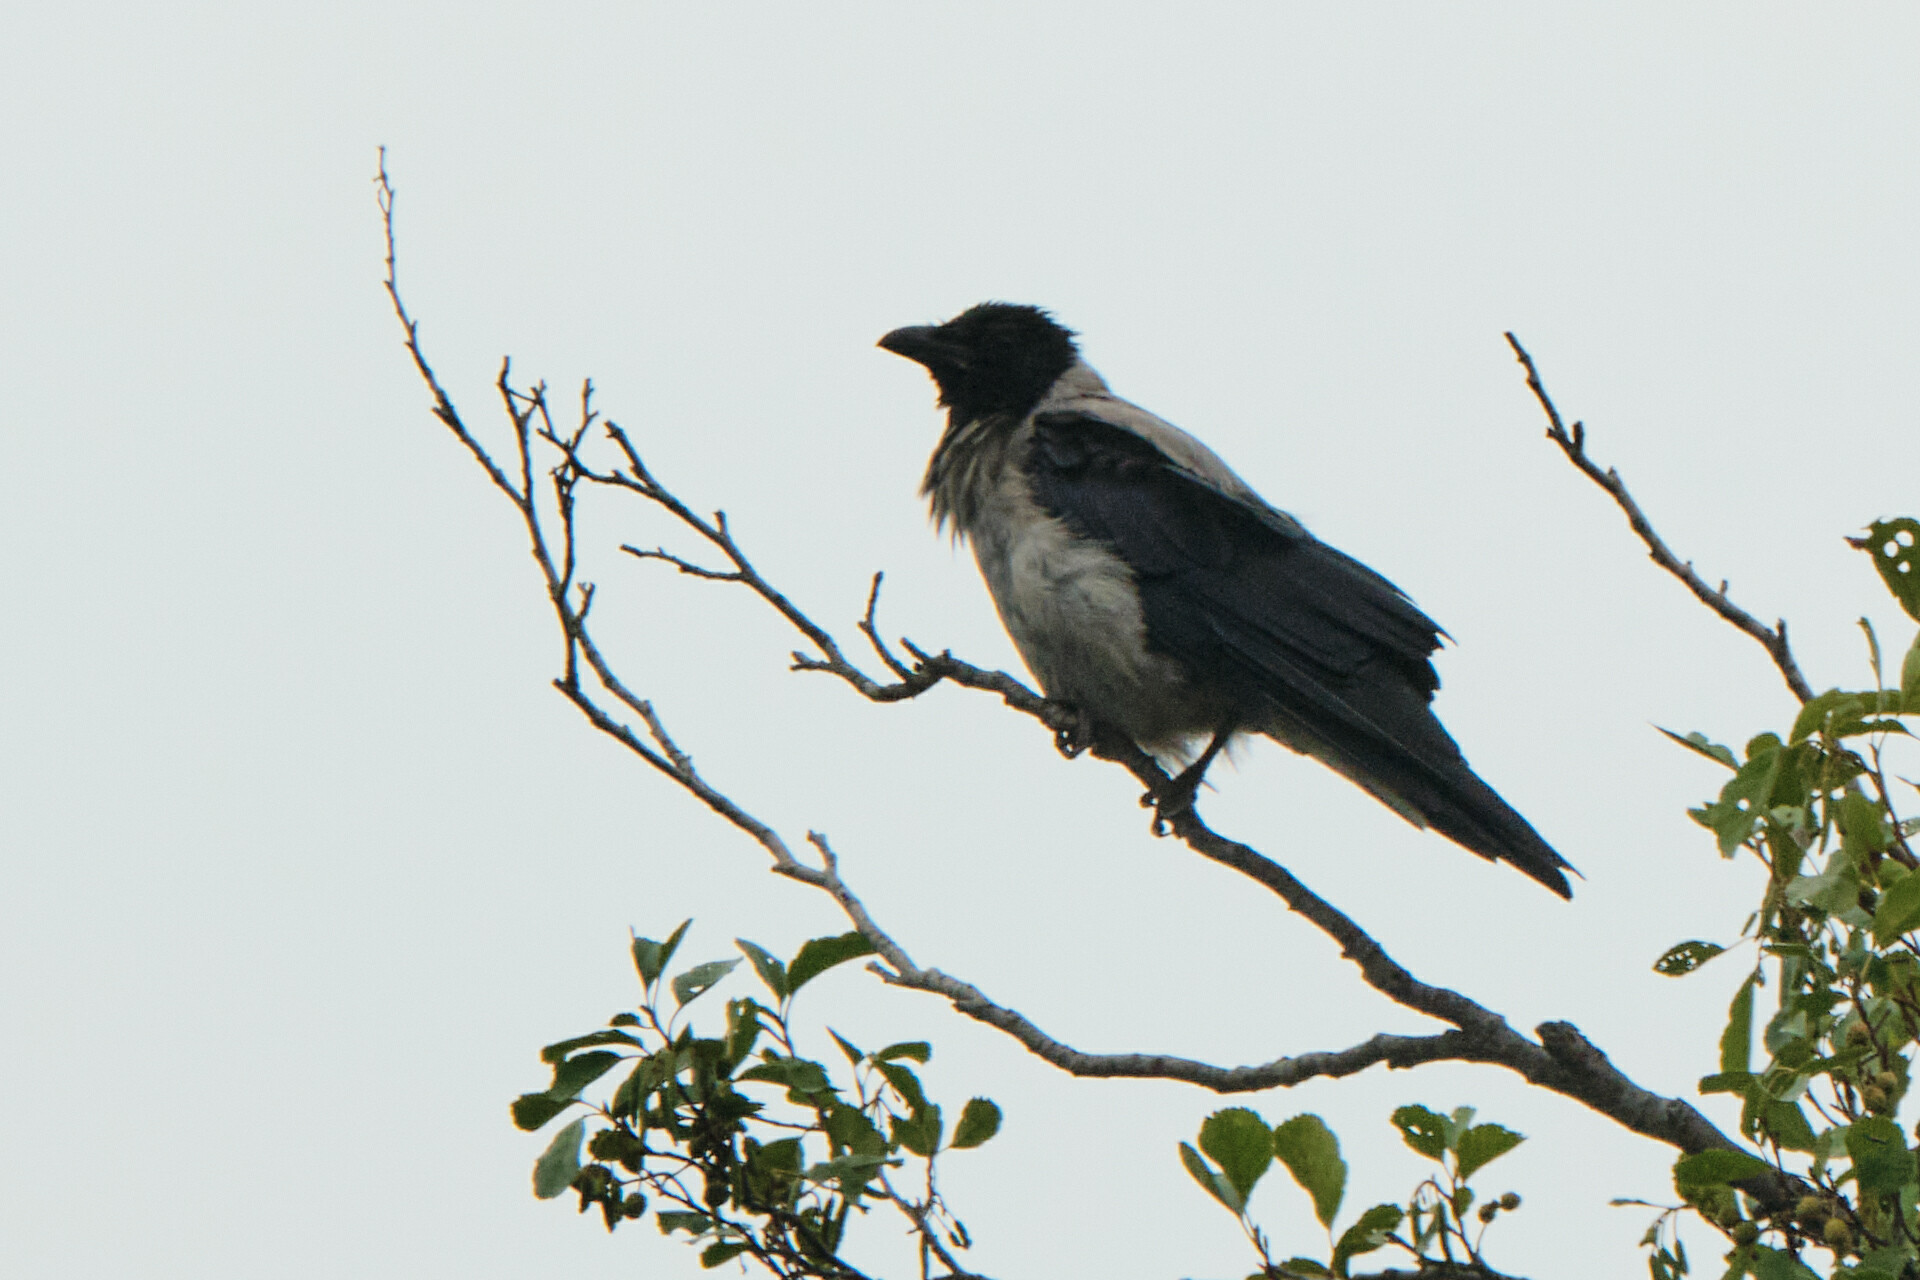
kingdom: Animalia
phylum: Chordata
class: Aves
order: Passeriformes
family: Corvidae
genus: Corvus
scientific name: Corvus cornix
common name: Hooded crow
